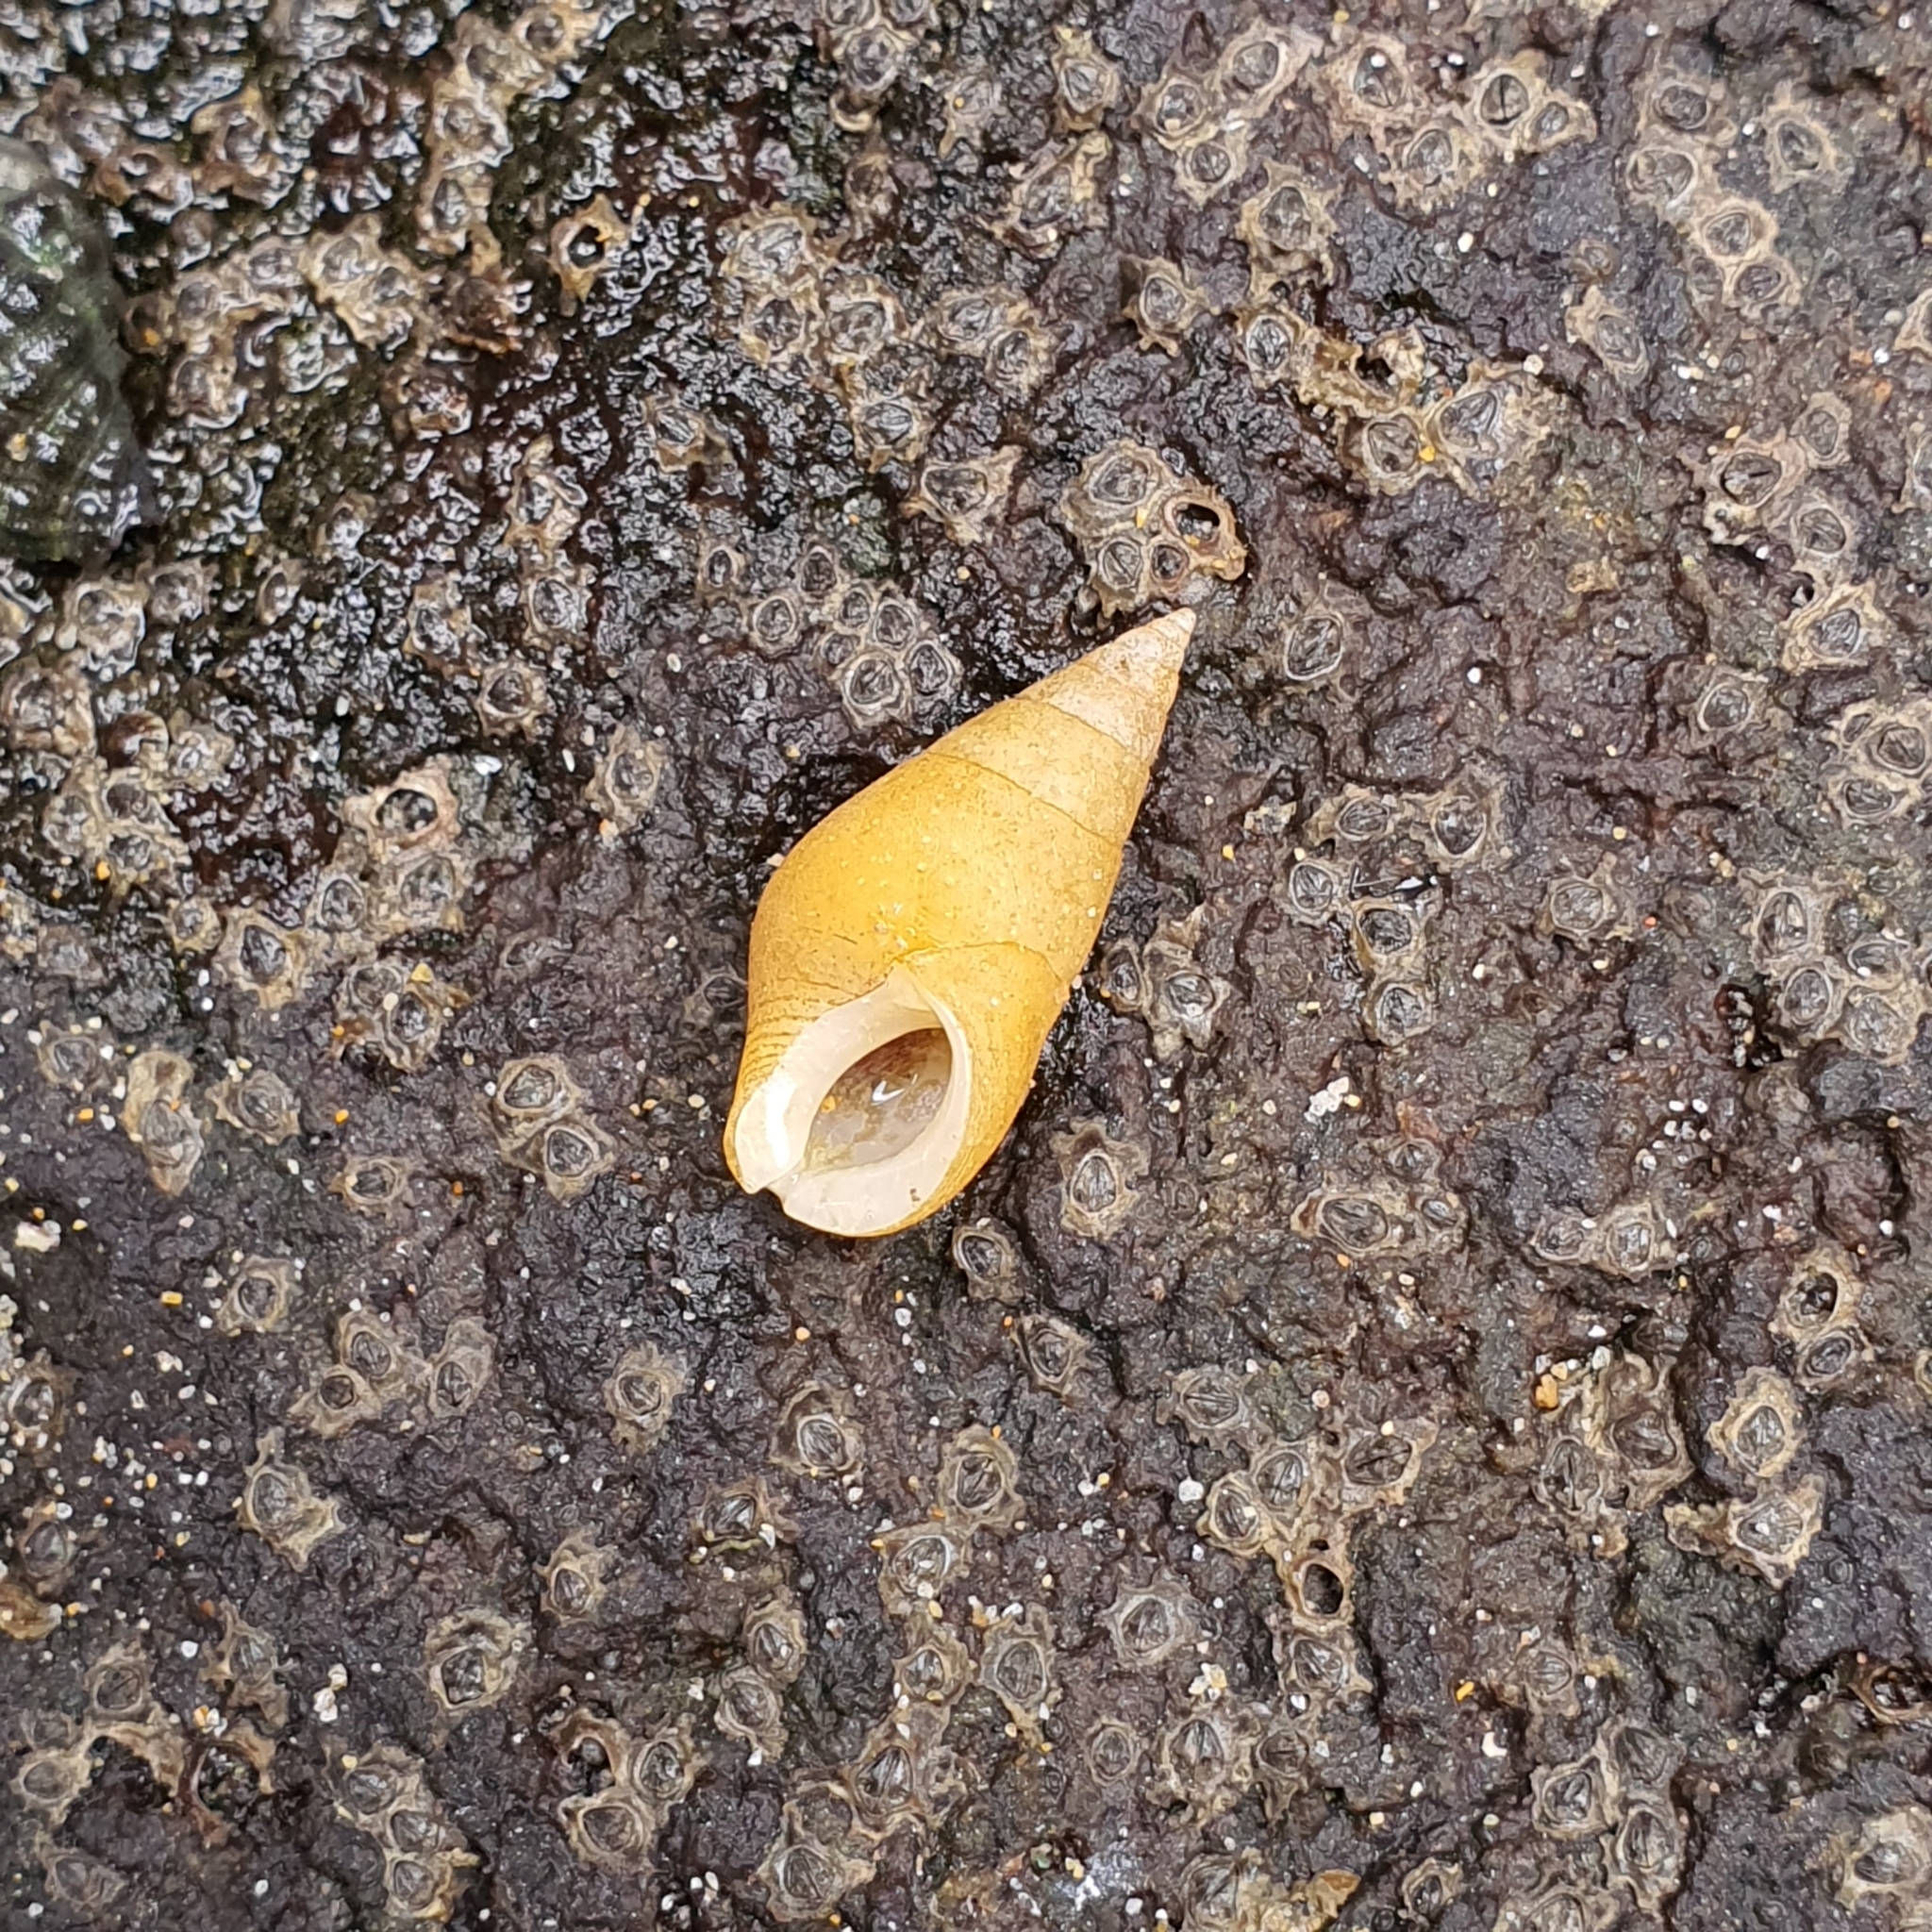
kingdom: Animalia
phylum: Mollusca
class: Gastropoda
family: Planaxidae
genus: Hinea
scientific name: Hinea brasiliana
